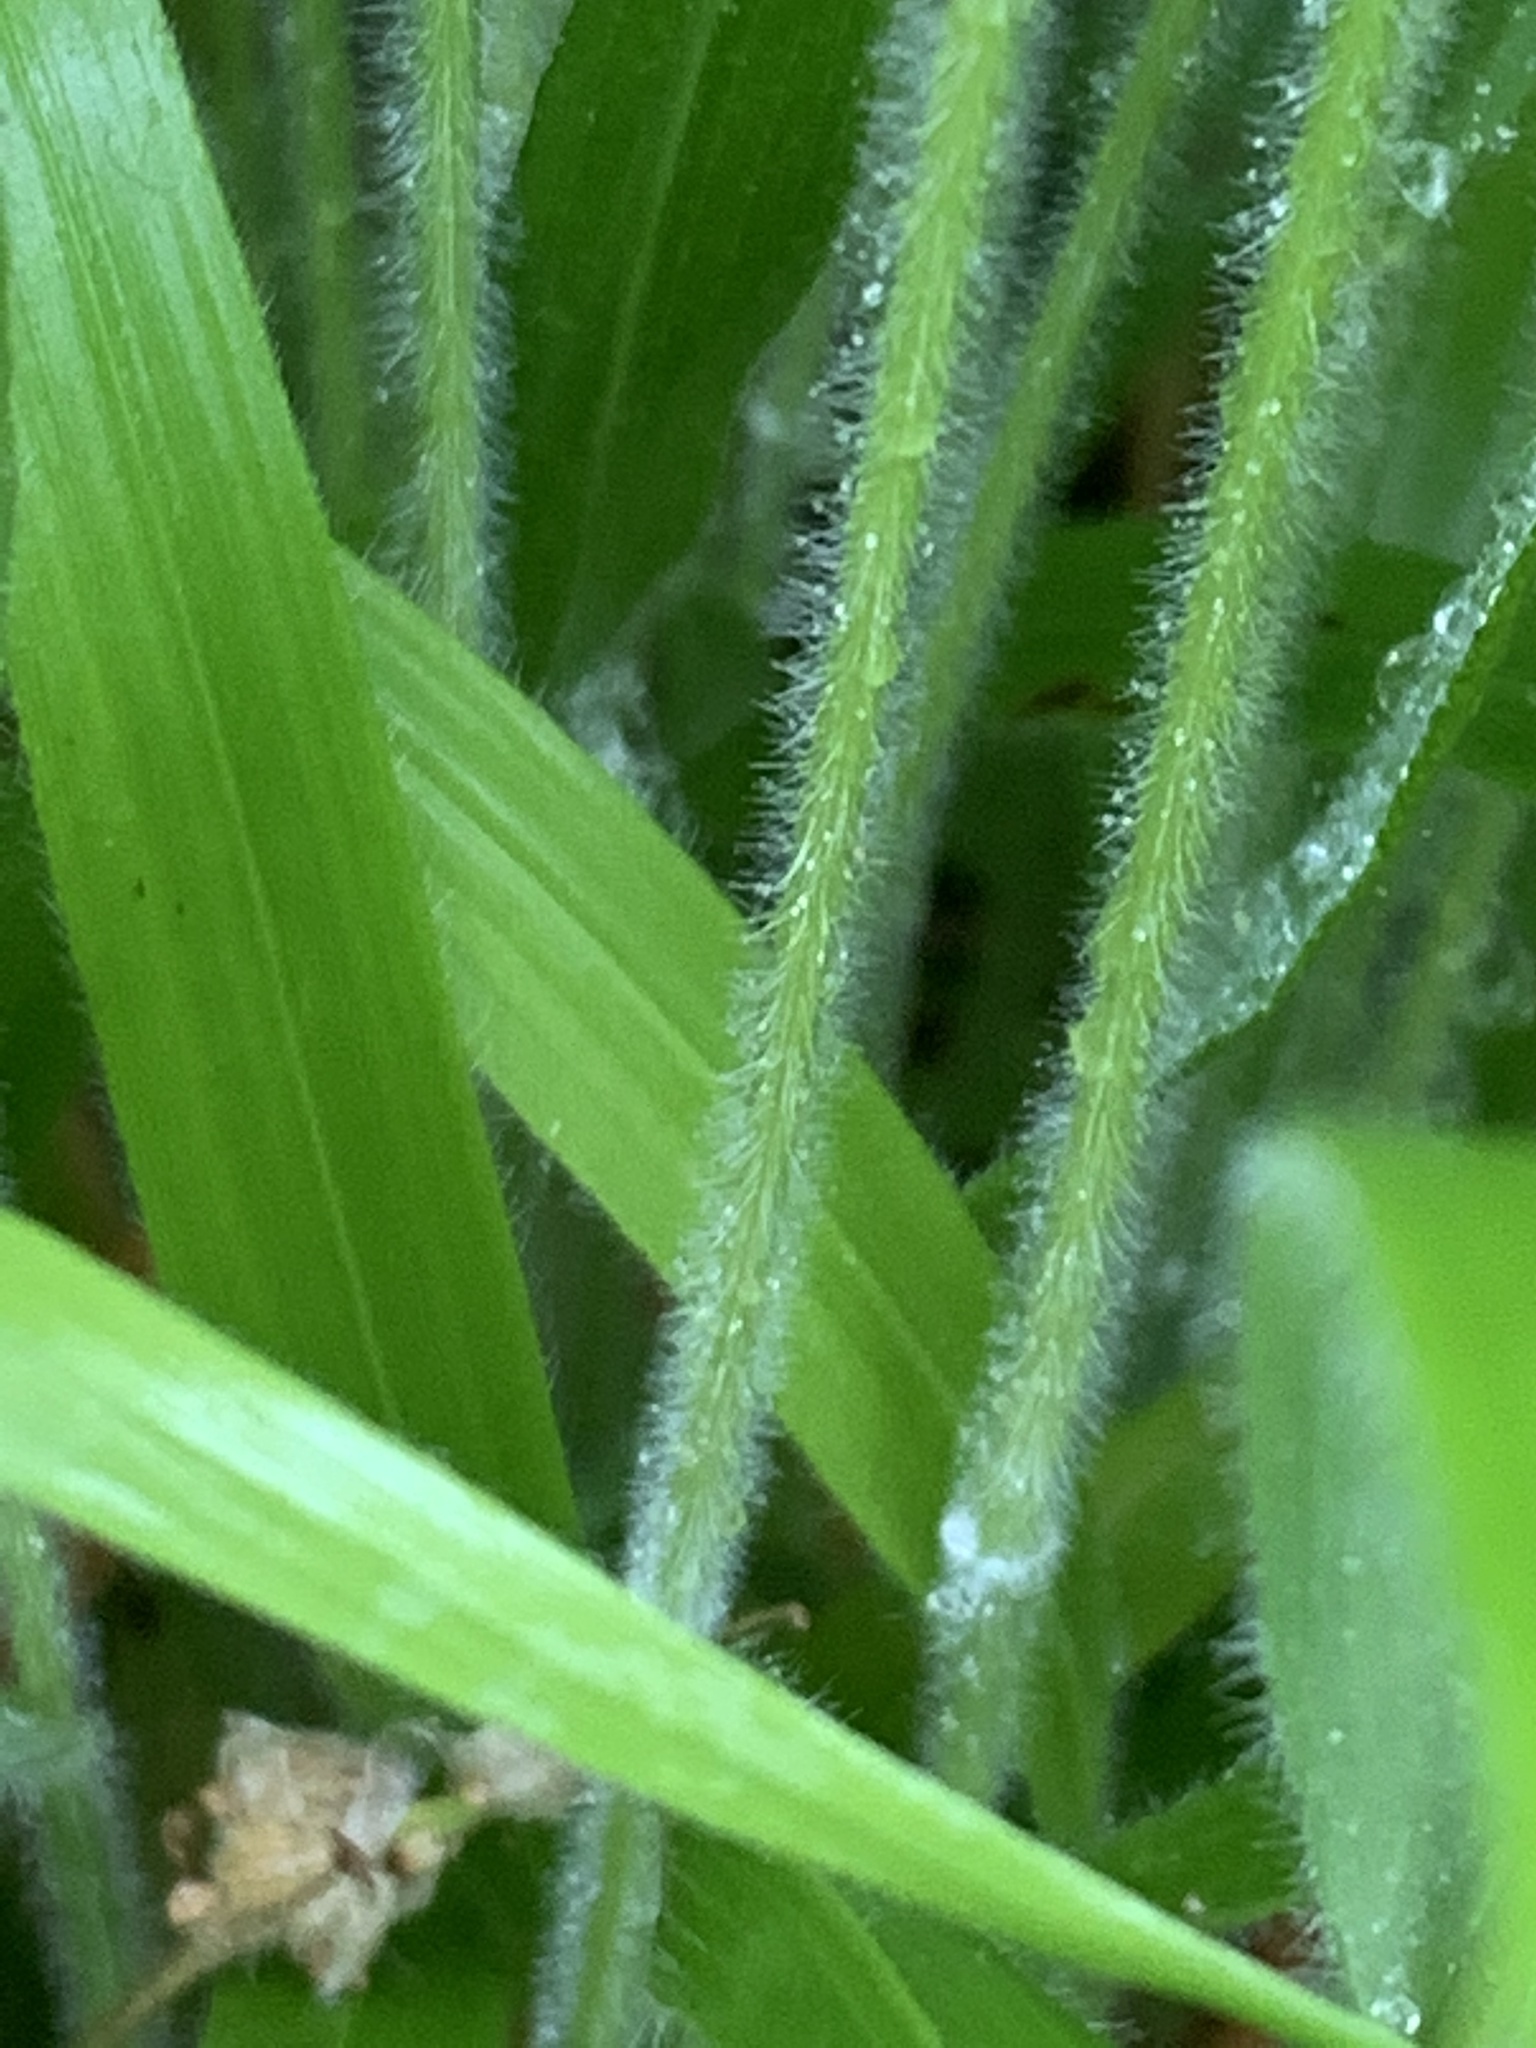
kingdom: Plantae
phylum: Tracheophyta
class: Liliopsida
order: Poales
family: Poaceae
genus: Brachypodium
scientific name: Brachypodium sylvaticum
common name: False-brome
